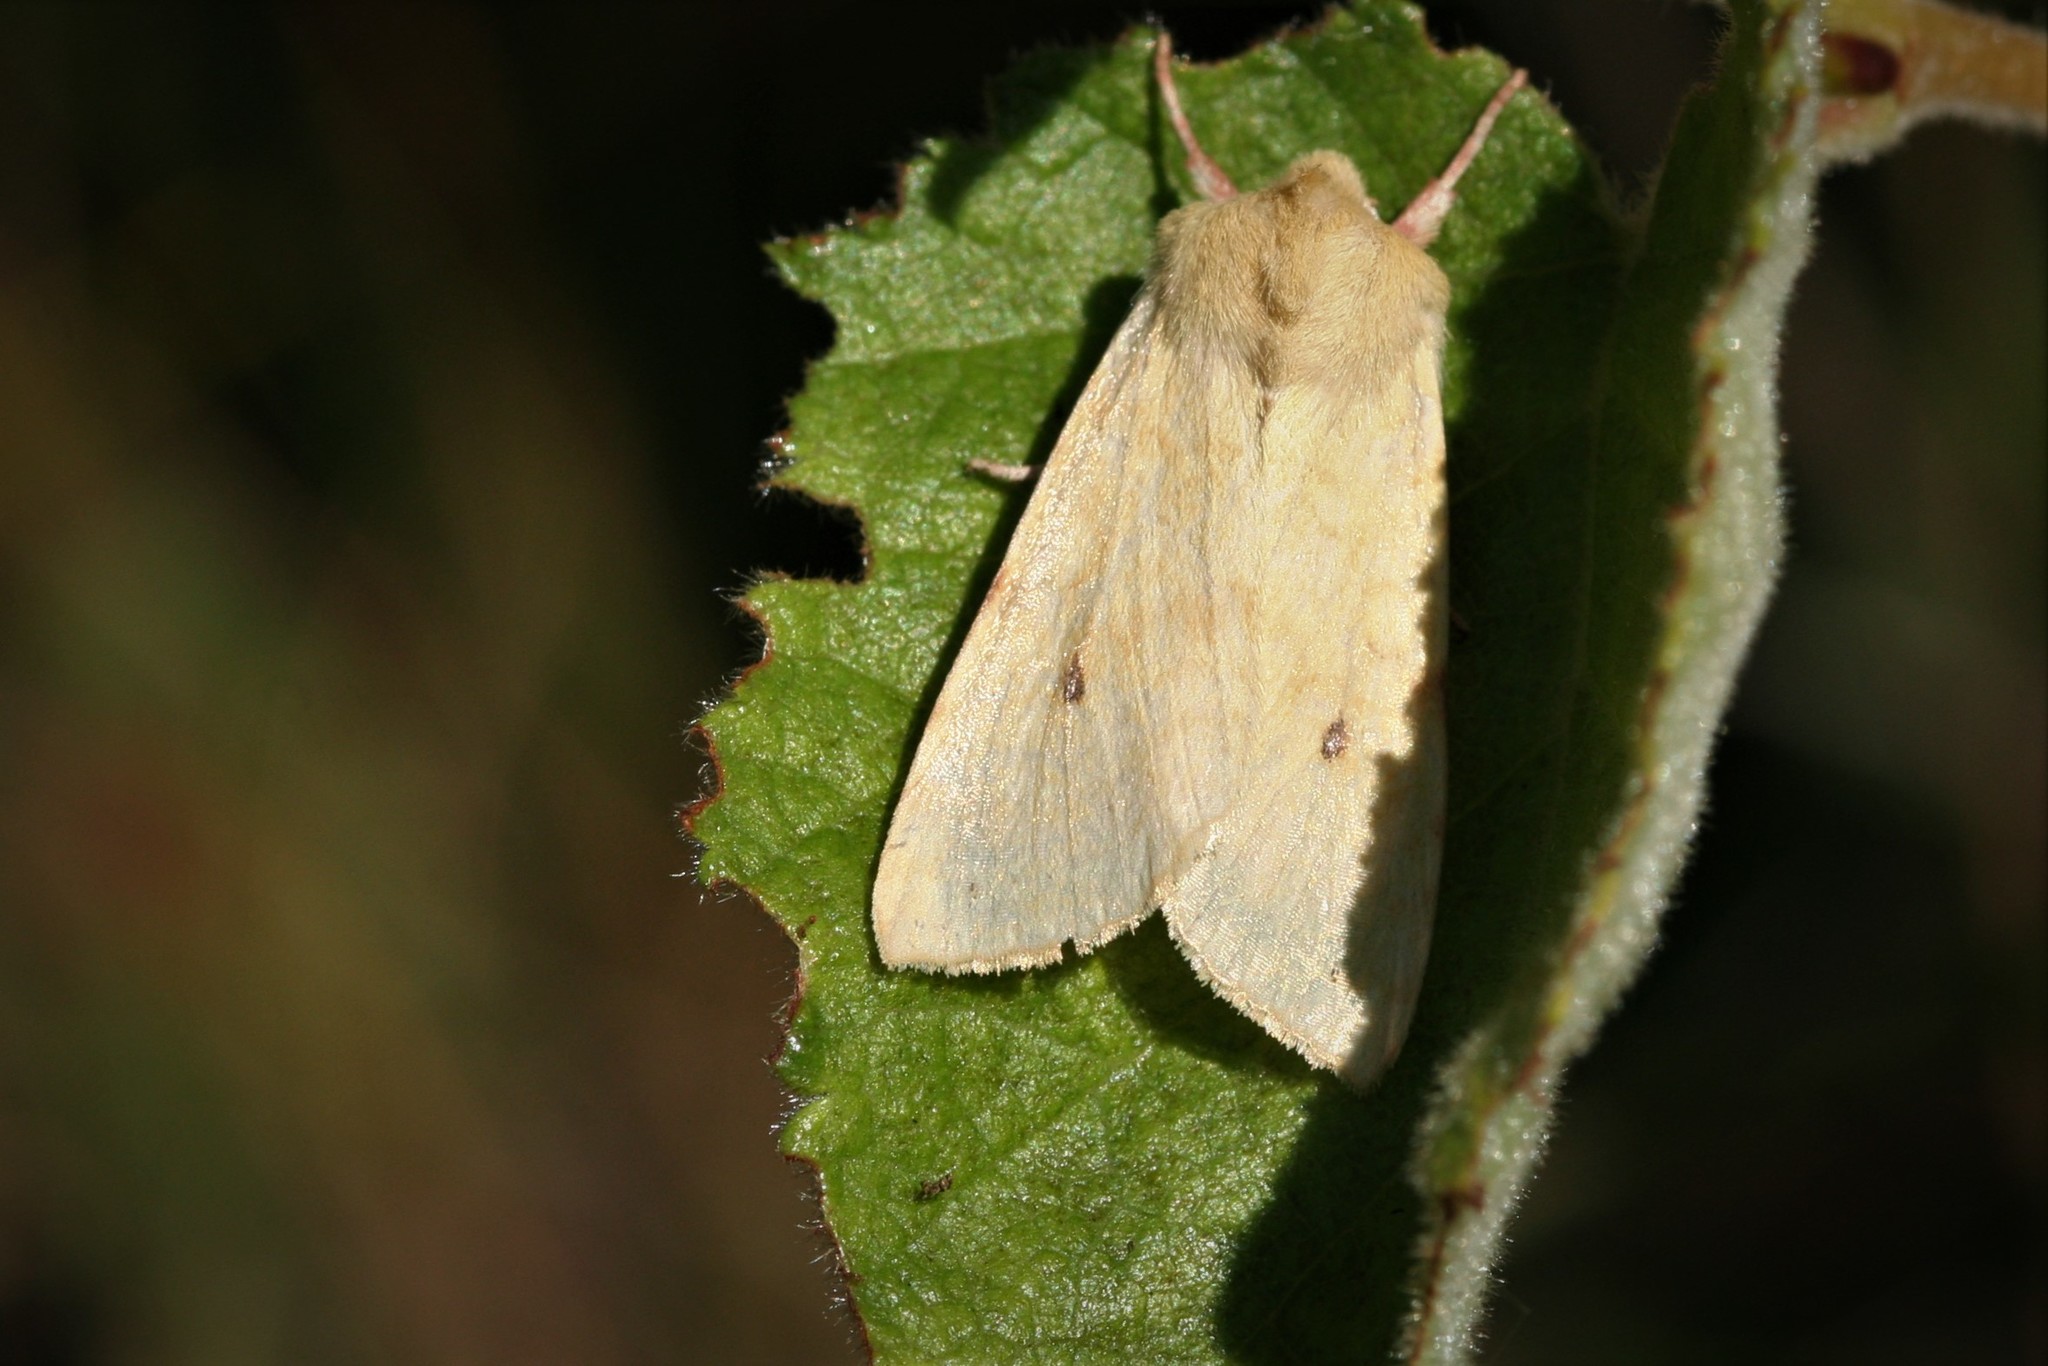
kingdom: Animalia
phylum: Arthropoda
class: Insecta
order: Lepidoptera
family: Noctuidae
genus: Xanthia
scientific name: Xanthia icteritia
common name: The sallow
